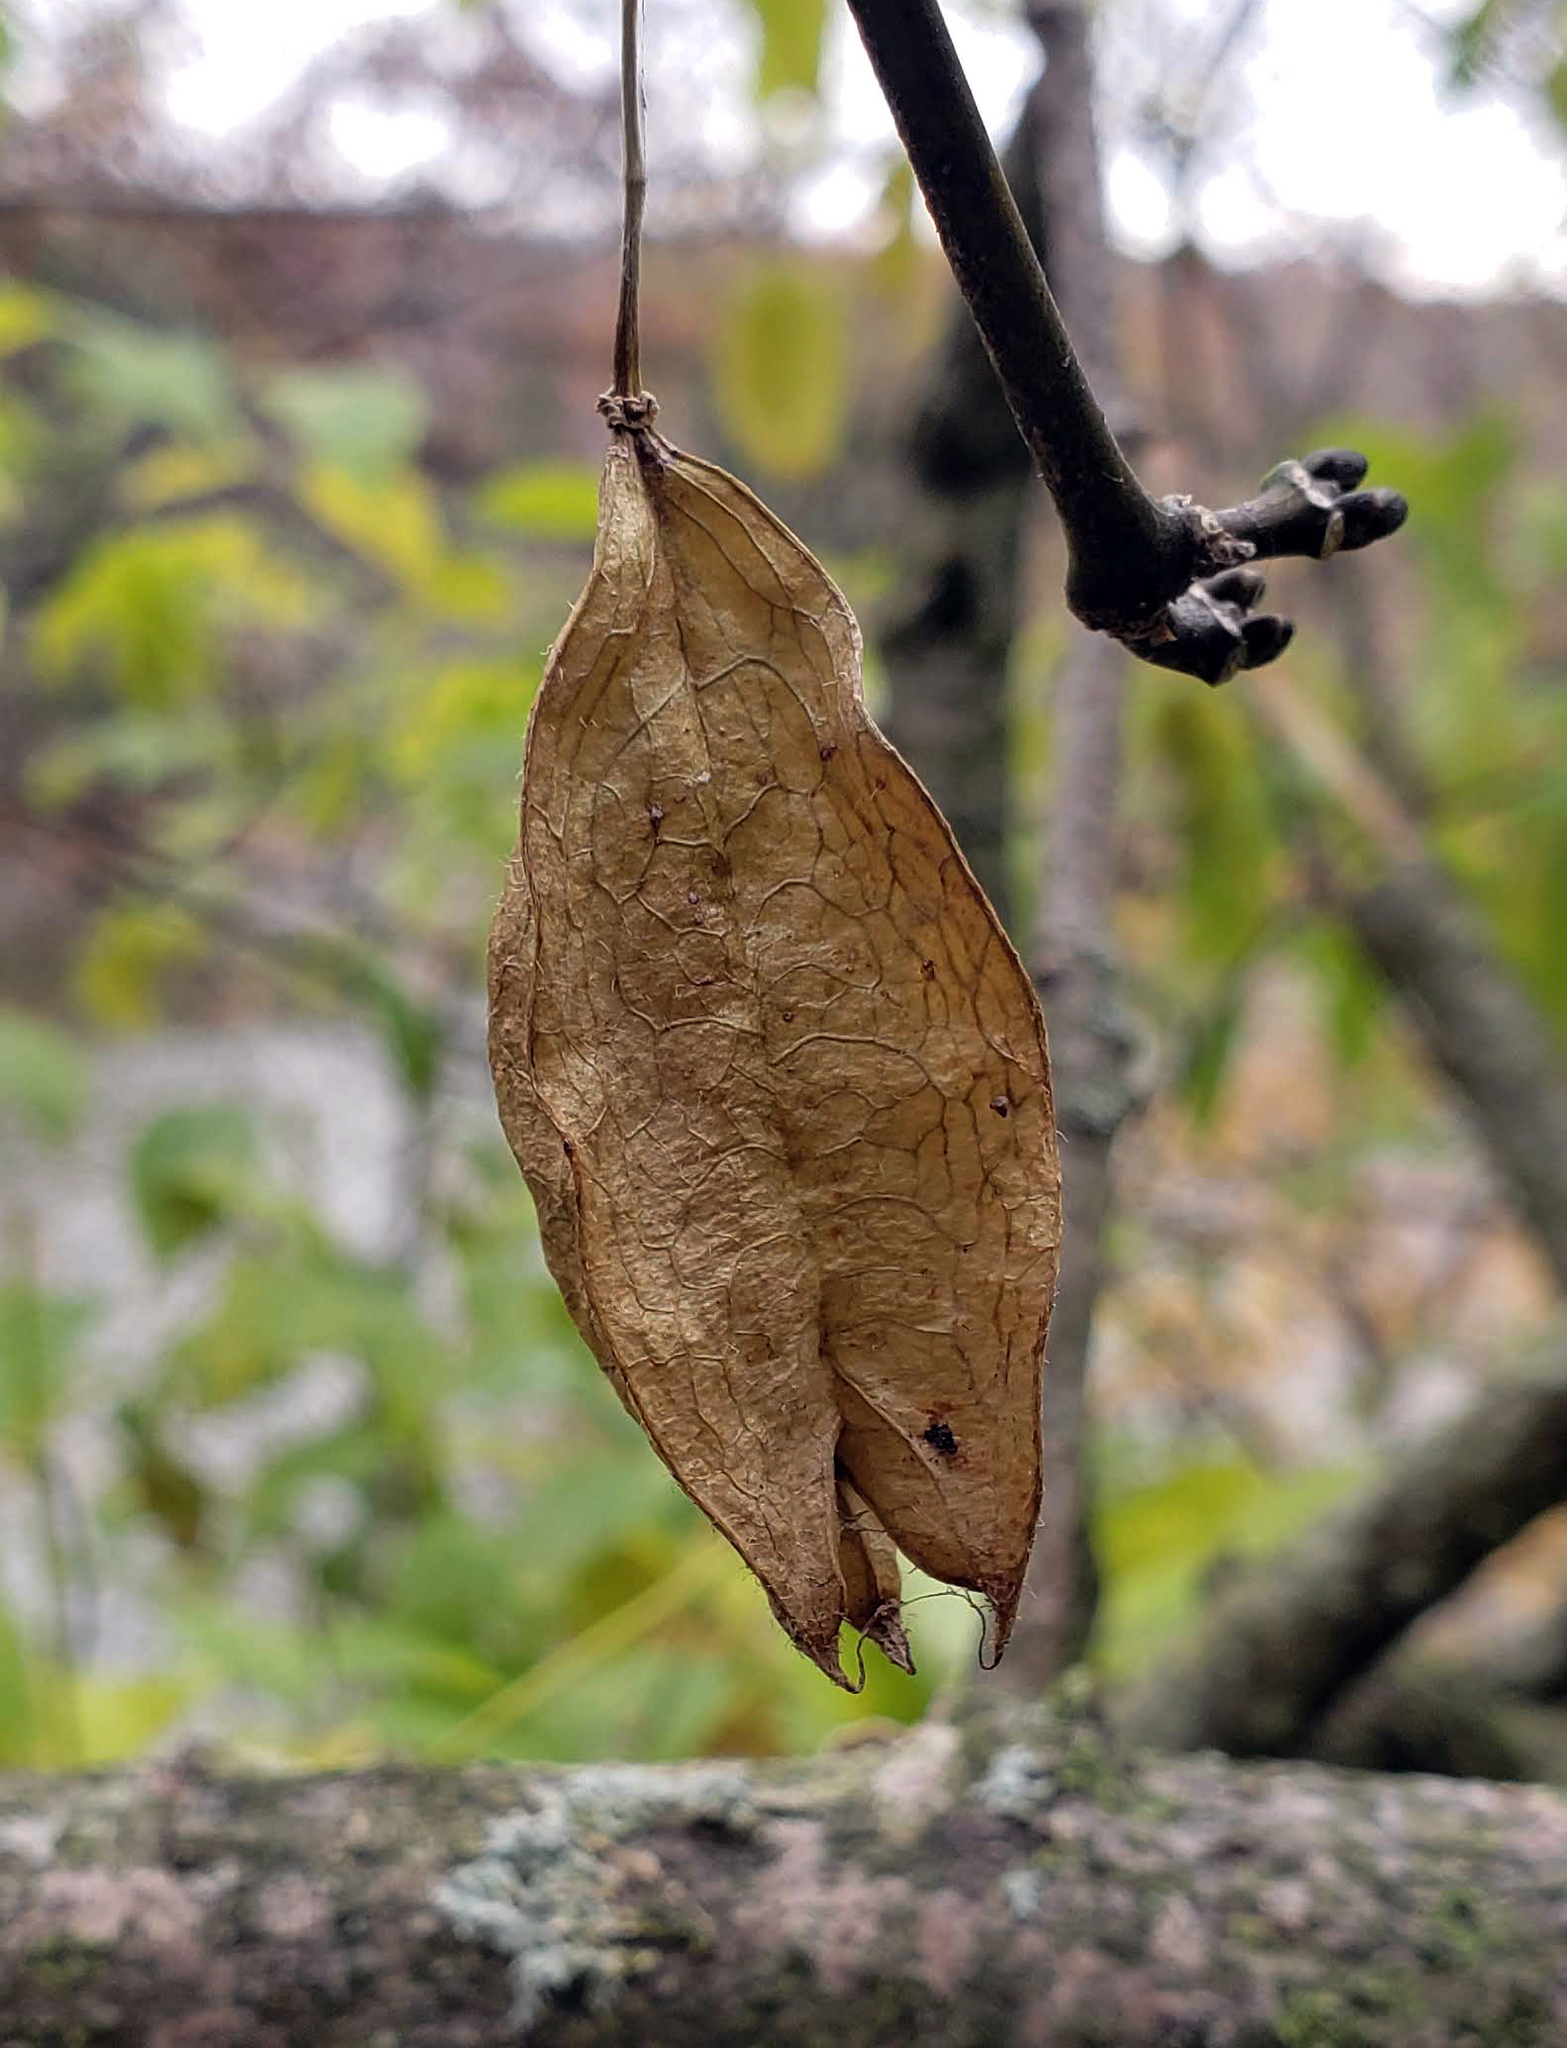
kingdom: Plantae
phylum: Tracheophyta
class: Magnoliopsida
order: Crossosomatales
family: Staphyleaceae
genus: Staphylea
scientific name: Staphylea trifolia
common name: American bladdernut
